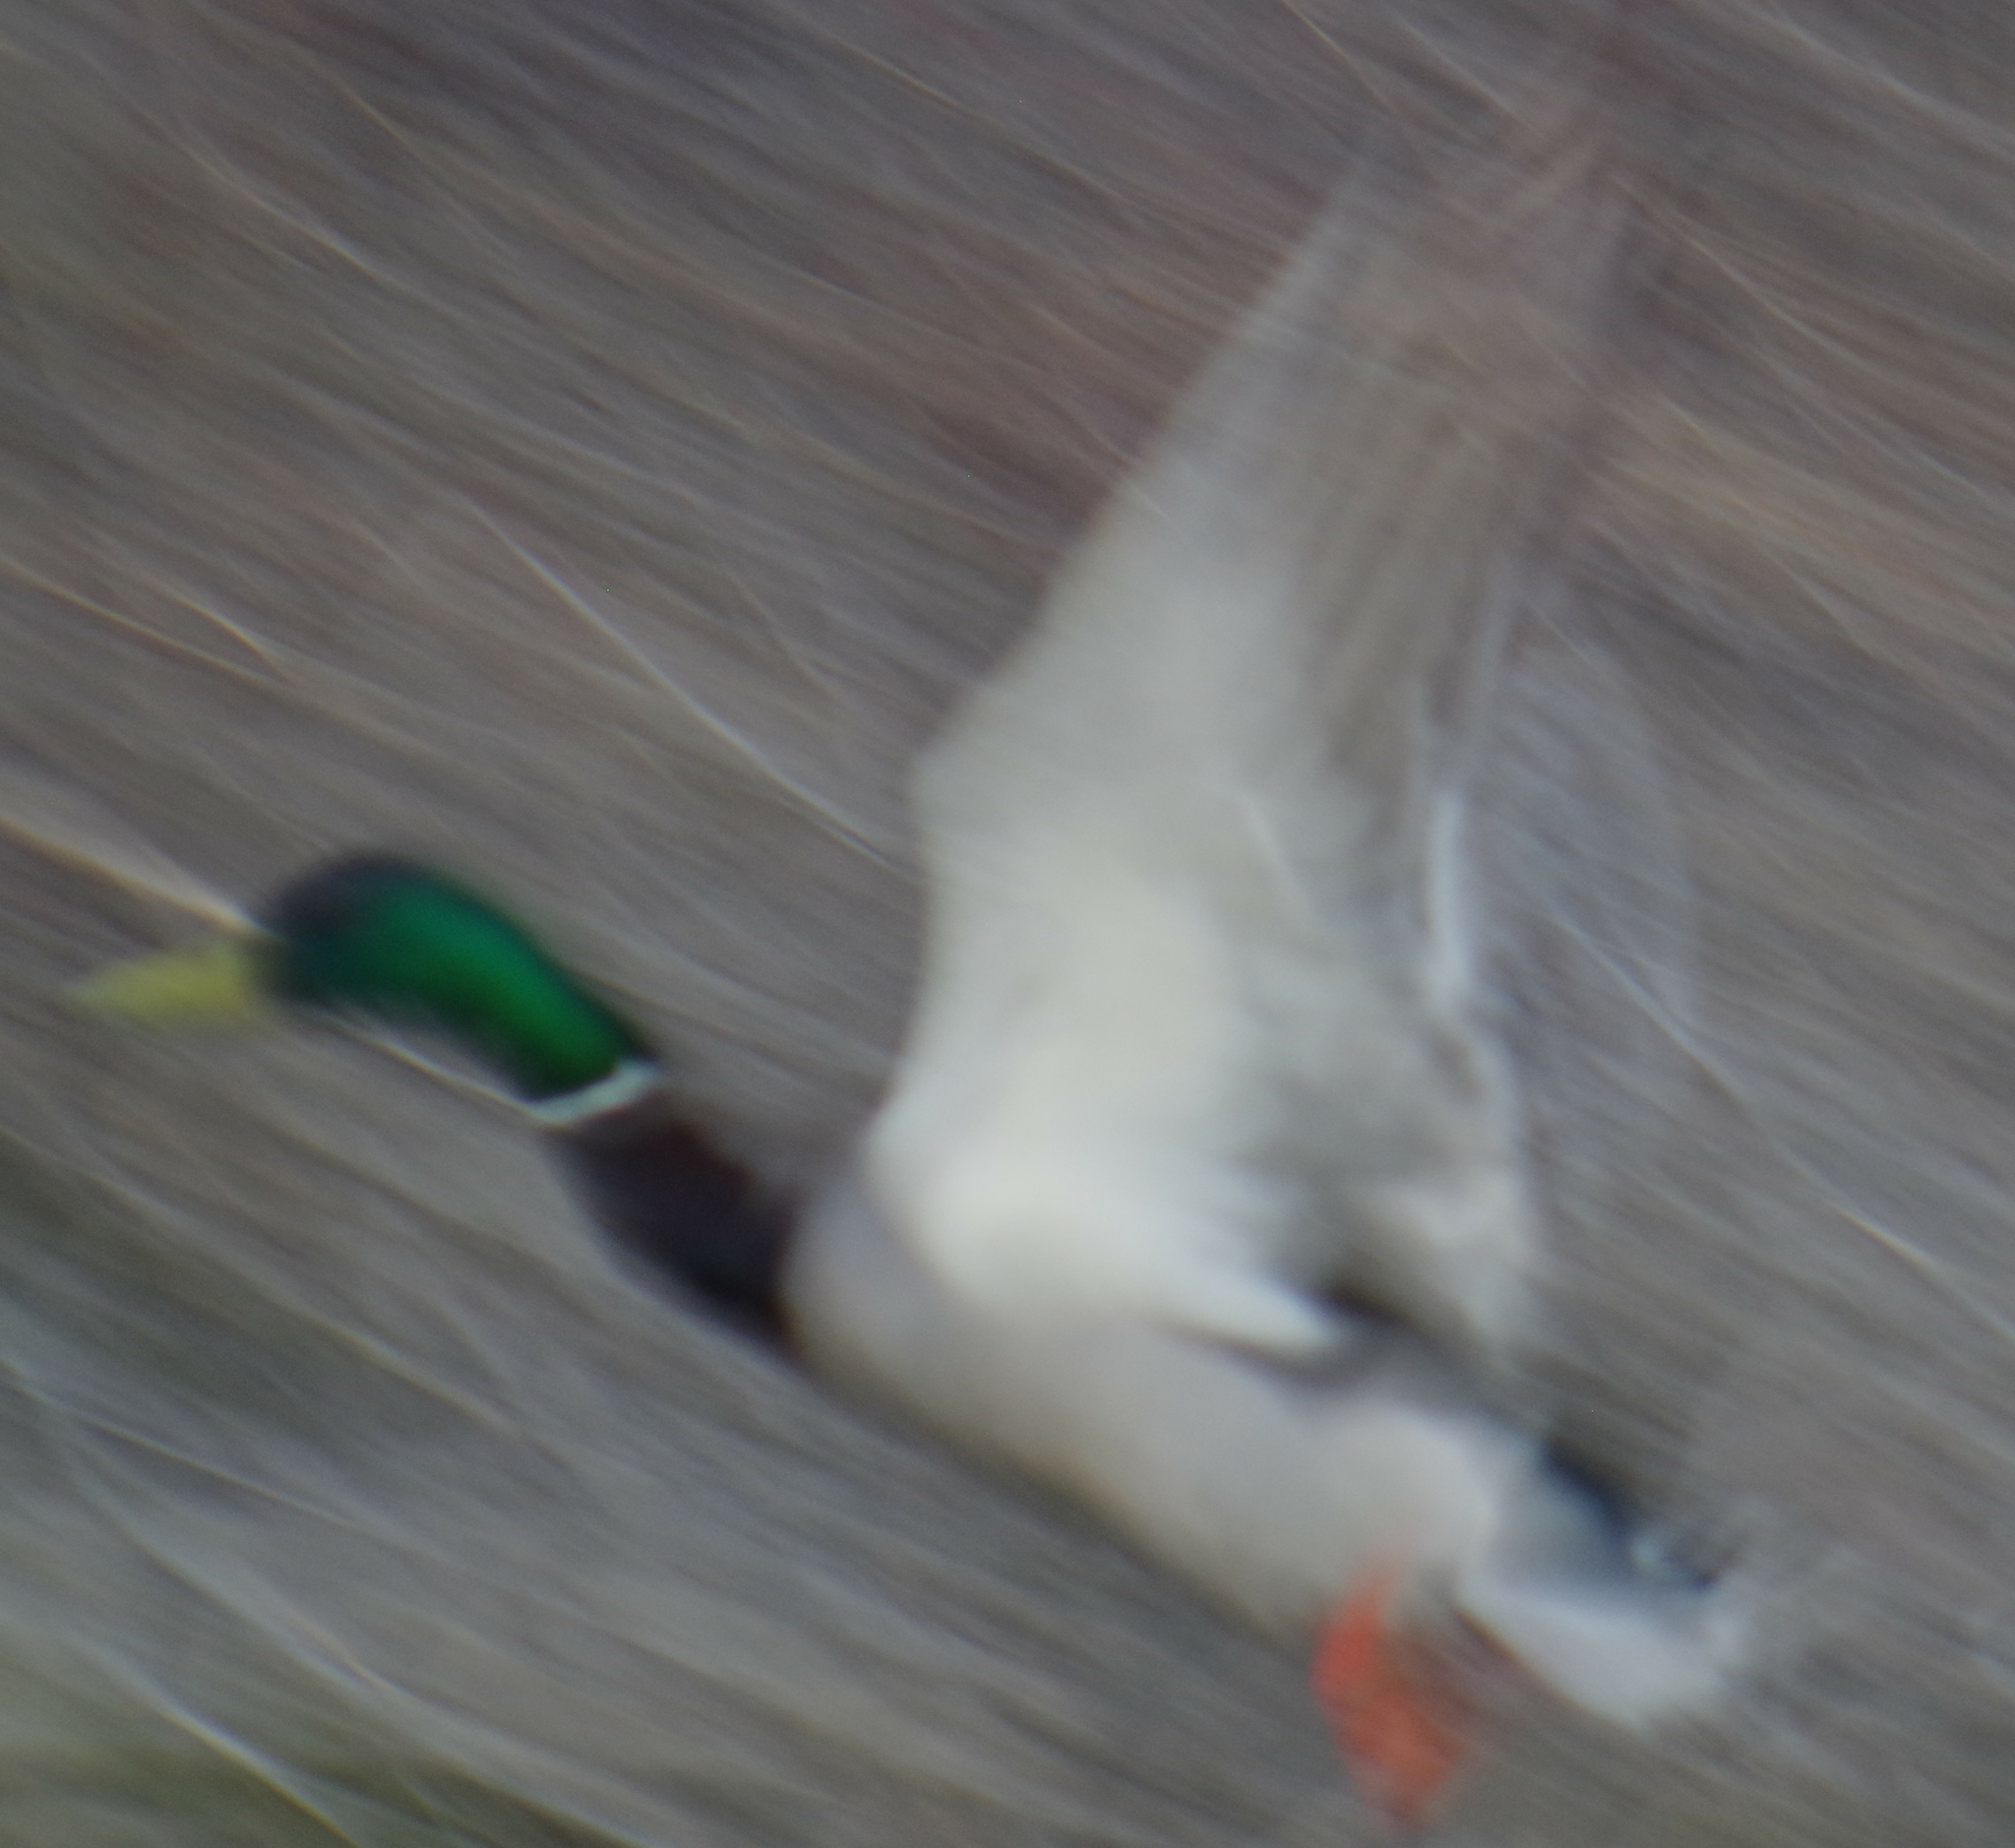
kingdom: Animalia
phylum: Chordata
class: Aves
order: Anseriformes
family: Anatidae
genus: Anas
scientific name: Anas platyrhynchos
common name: Mallard
